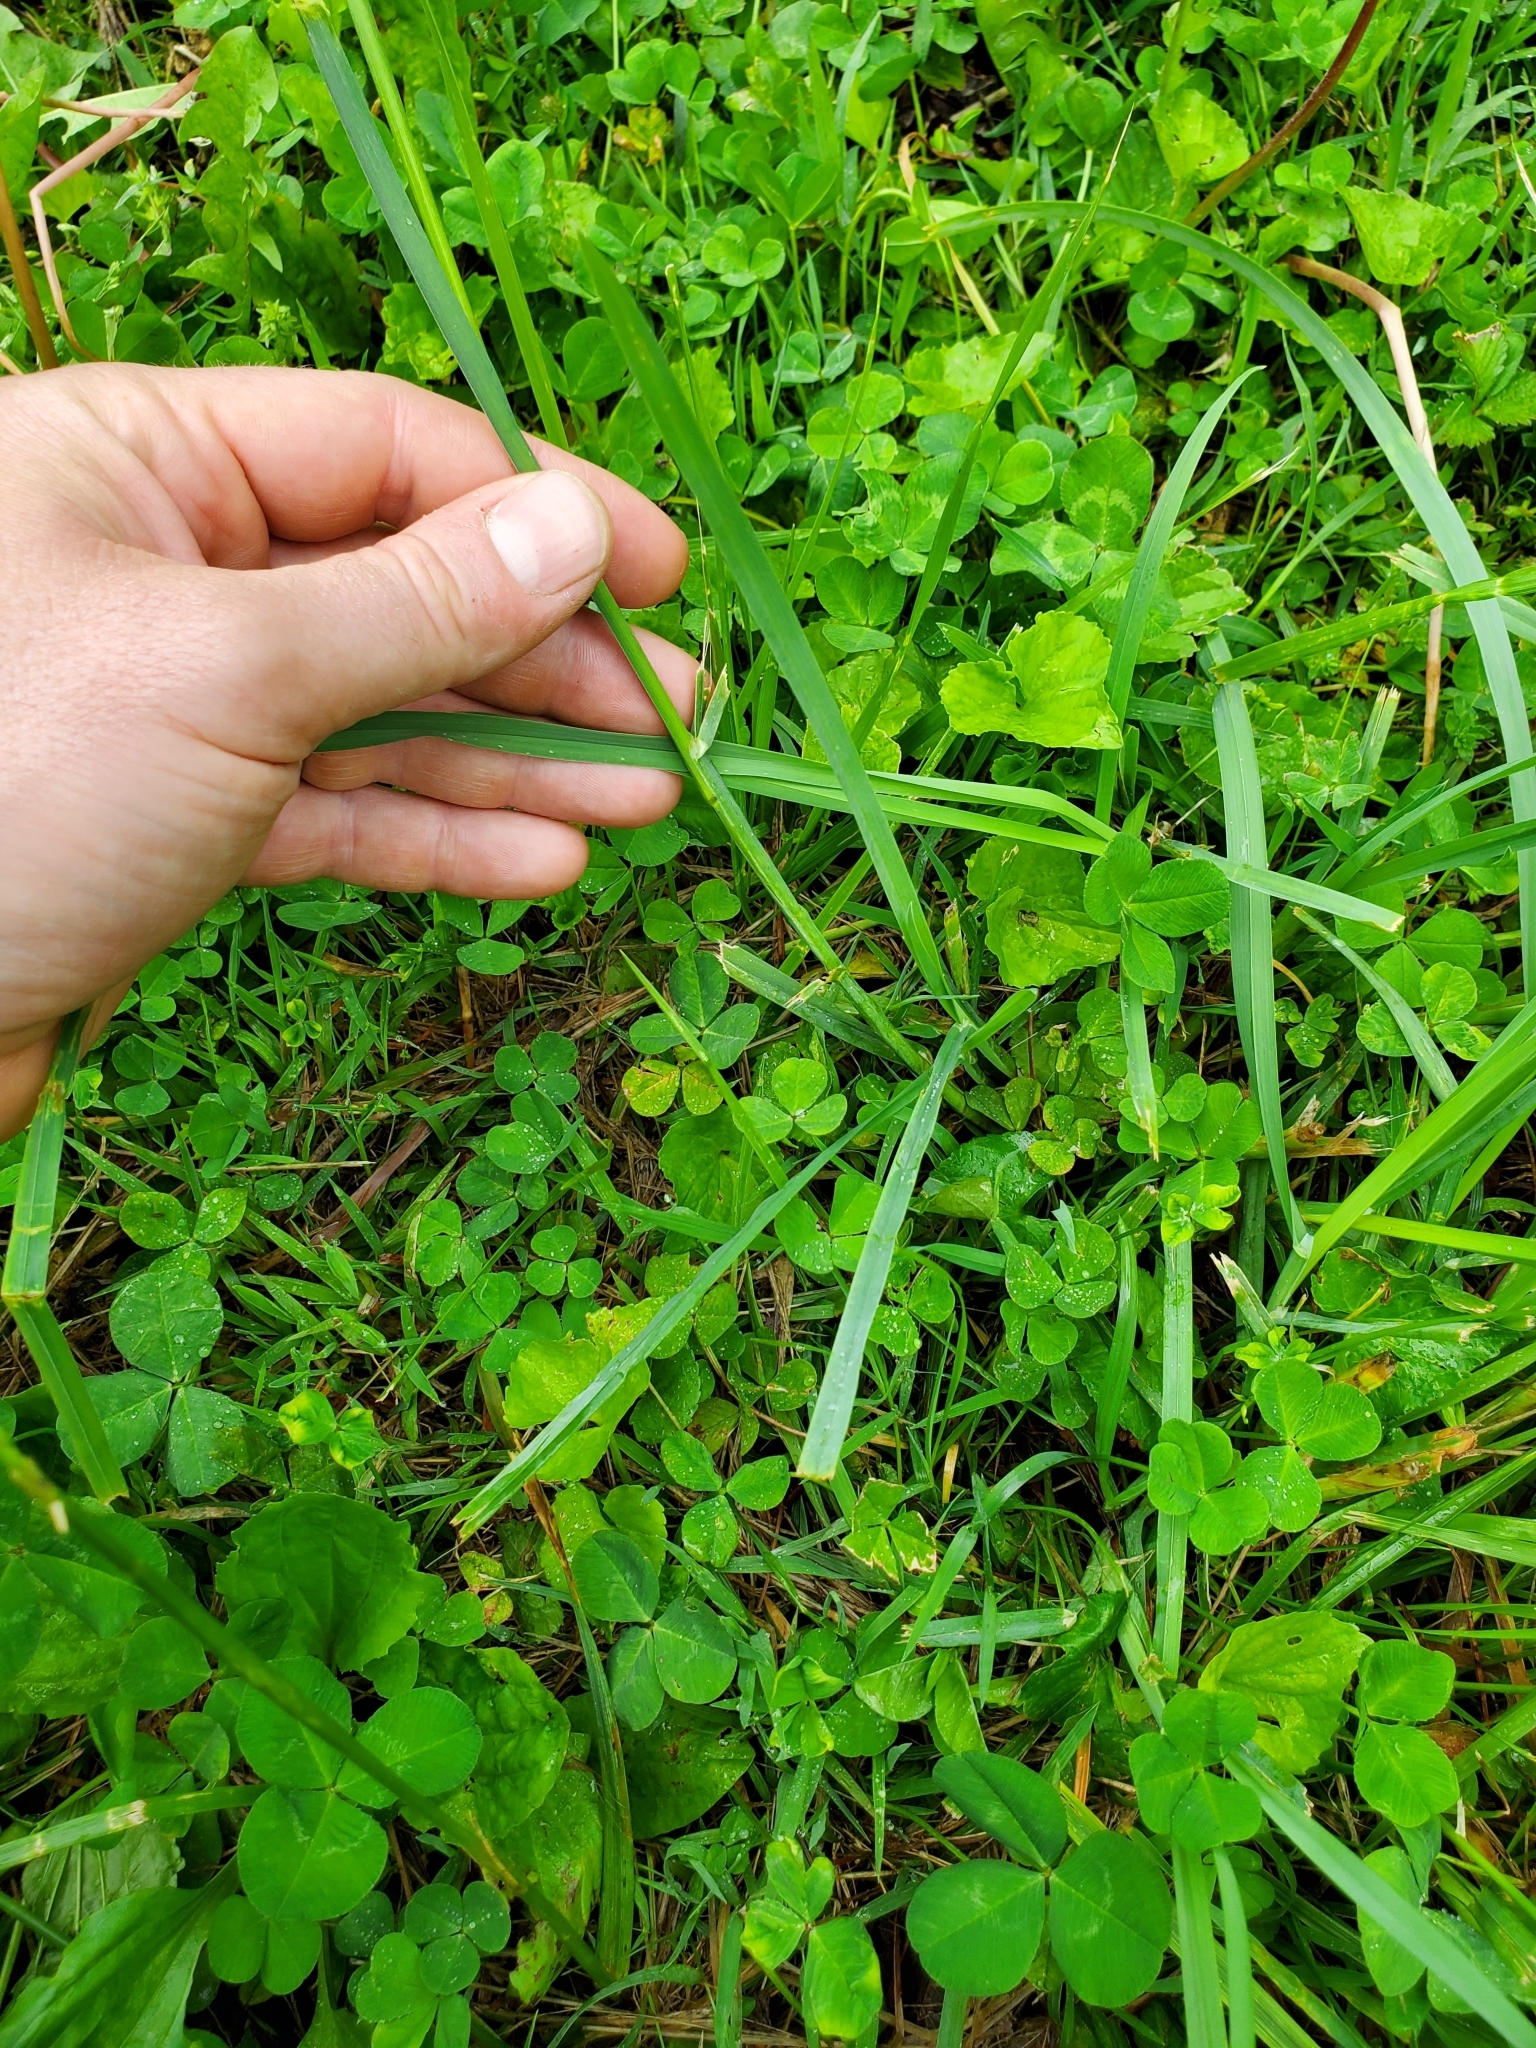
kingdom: Plantae
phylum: Tracheophyta
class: Liliopsida
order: Poales
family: Poaceae
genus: Dactylis
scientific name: Dactylis glomerata
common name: Orchardgrass
